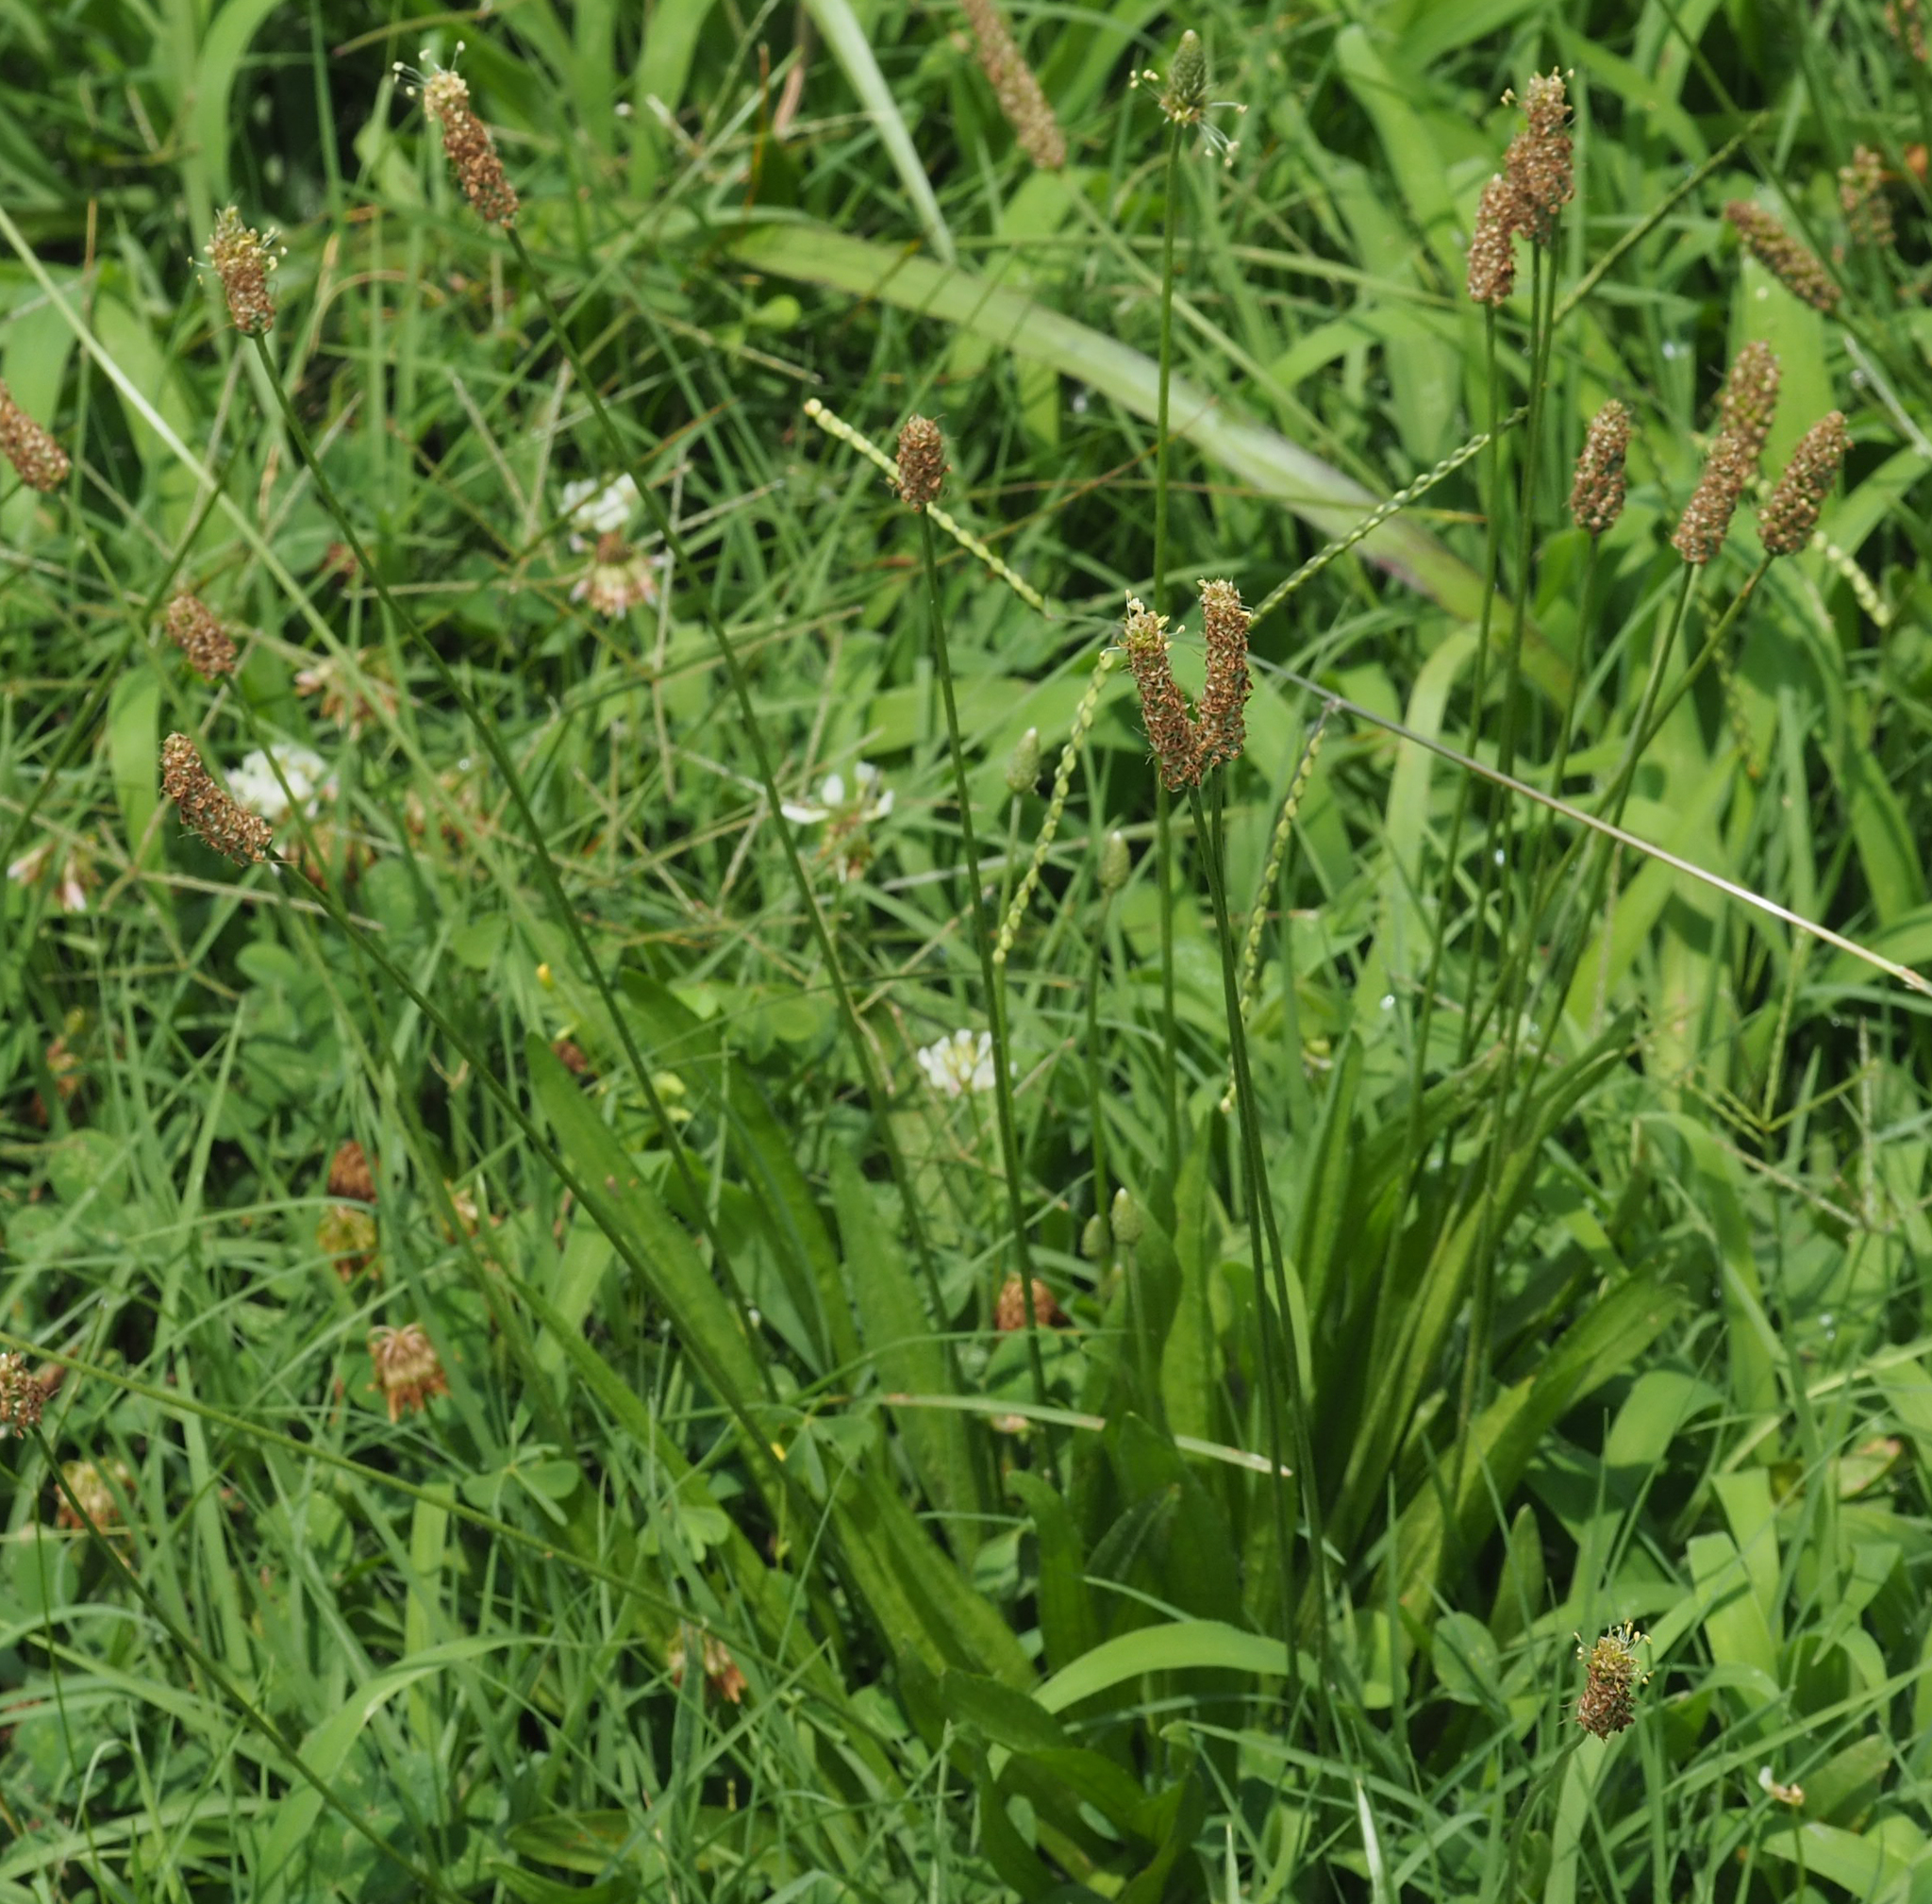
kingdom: Plantae
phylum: Tracheophyta
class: Magnoliopsida
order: Lamiales
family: Plantaginaceae
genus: Plantago
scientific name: Plantago lanceolata
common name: Ribwort plantain
